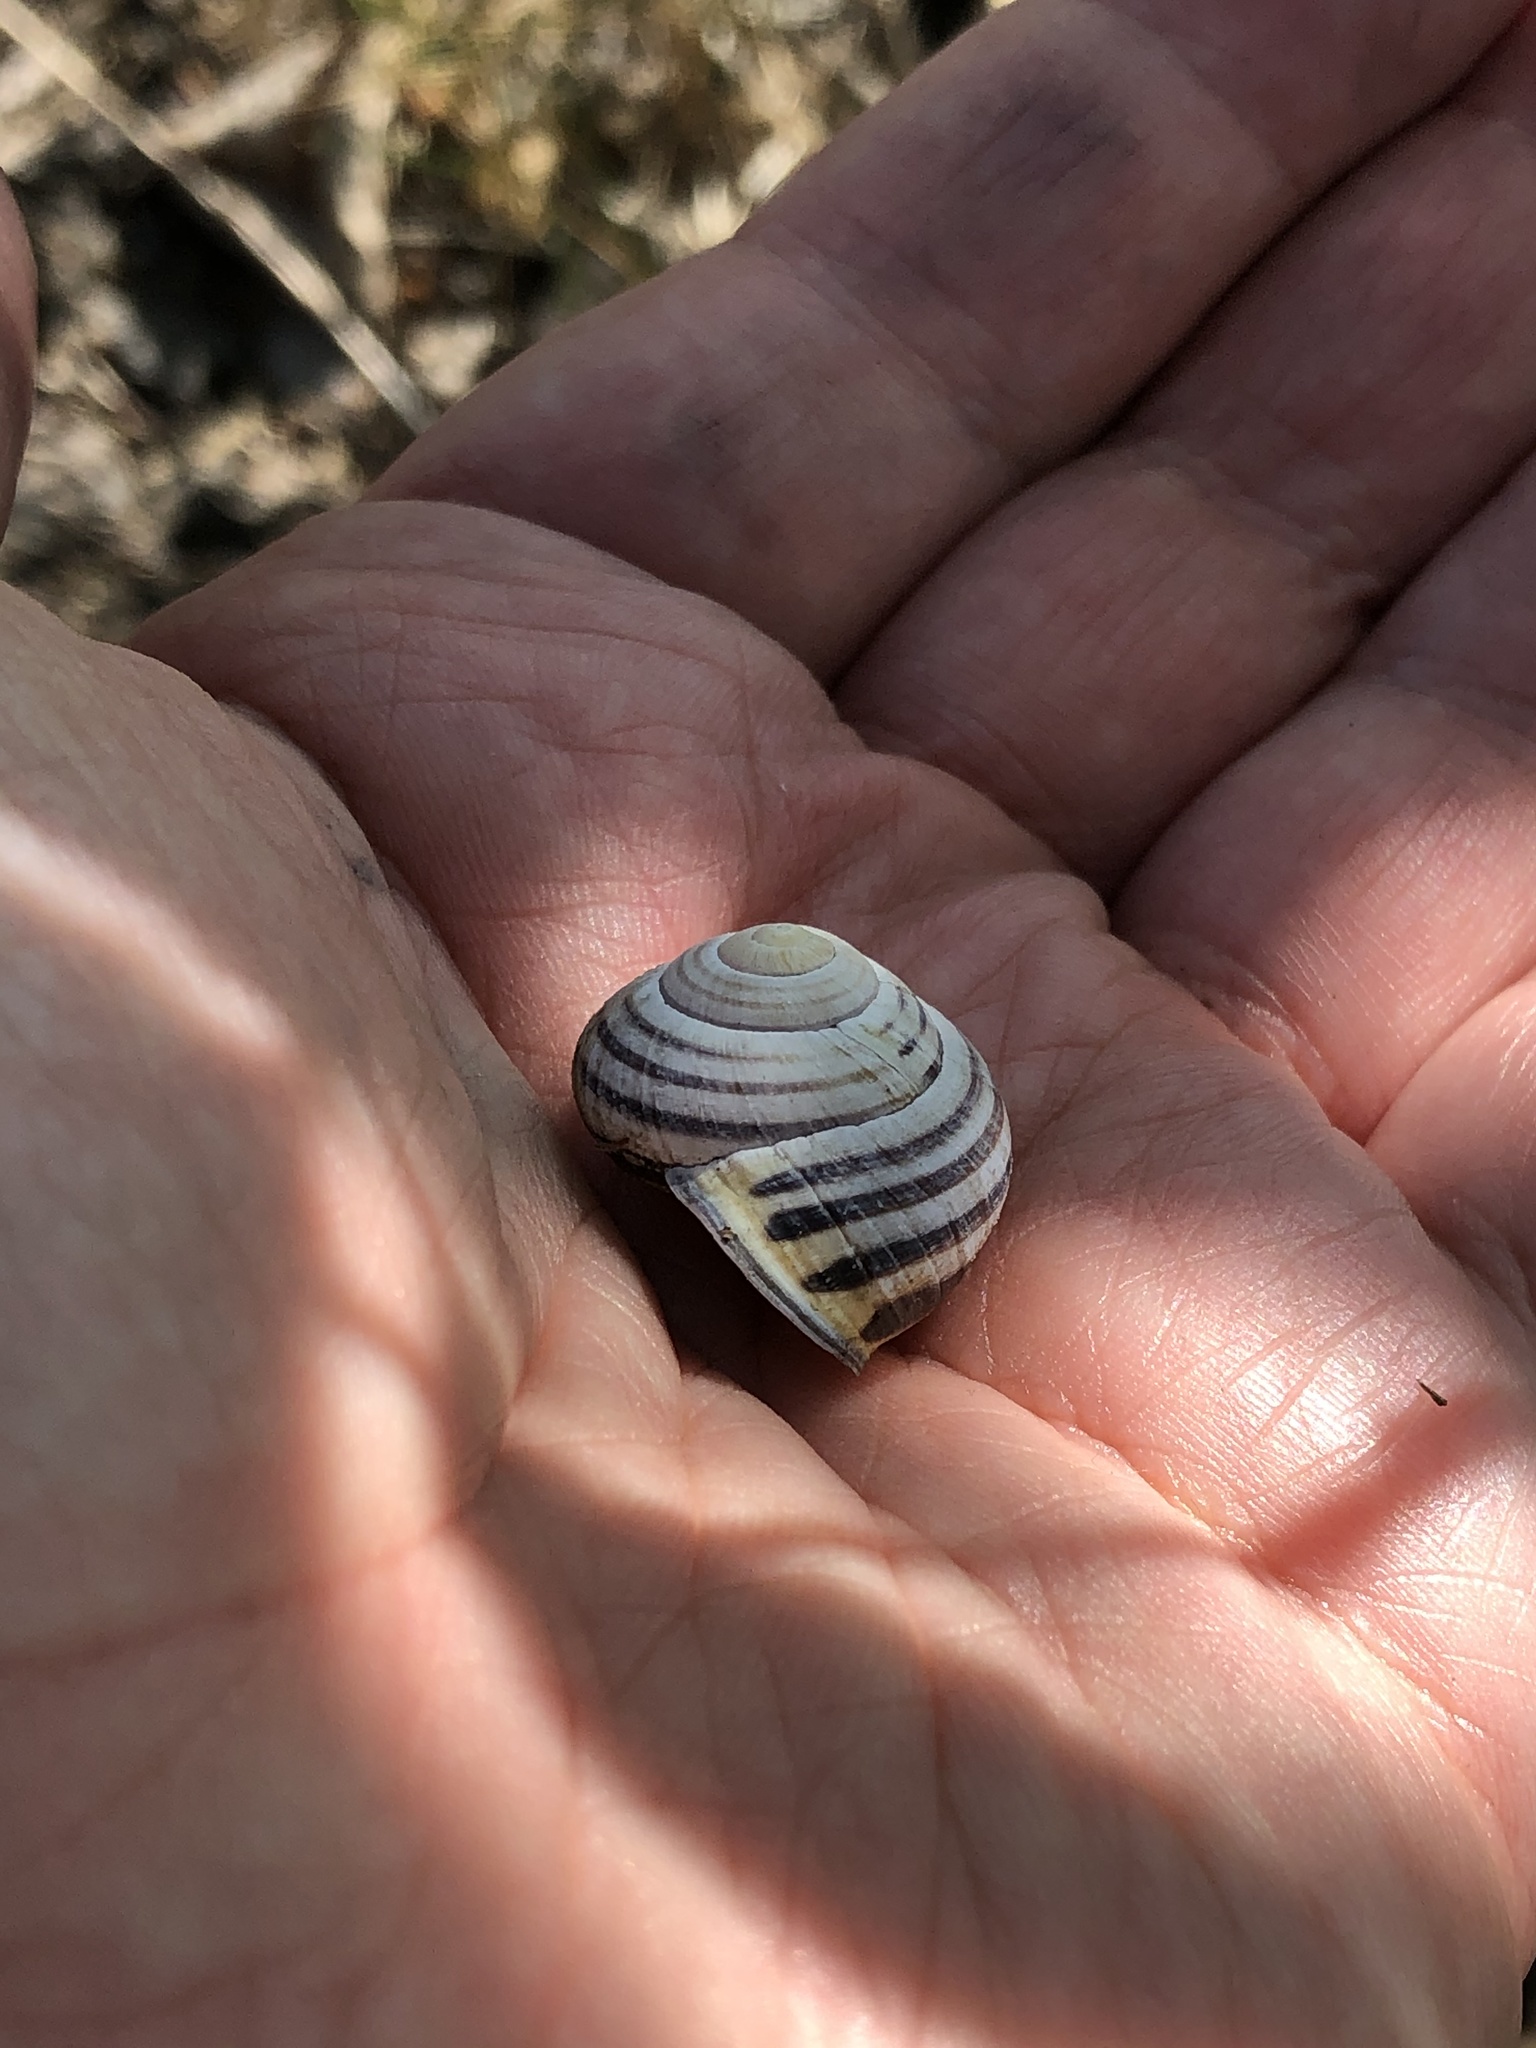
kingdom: Animalia
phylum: Mollusca
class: Gastropoda
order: Stylommatophora
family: Helicidae
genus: Cepaea
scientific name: Cepaea nemoralis
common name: Grovesnail
